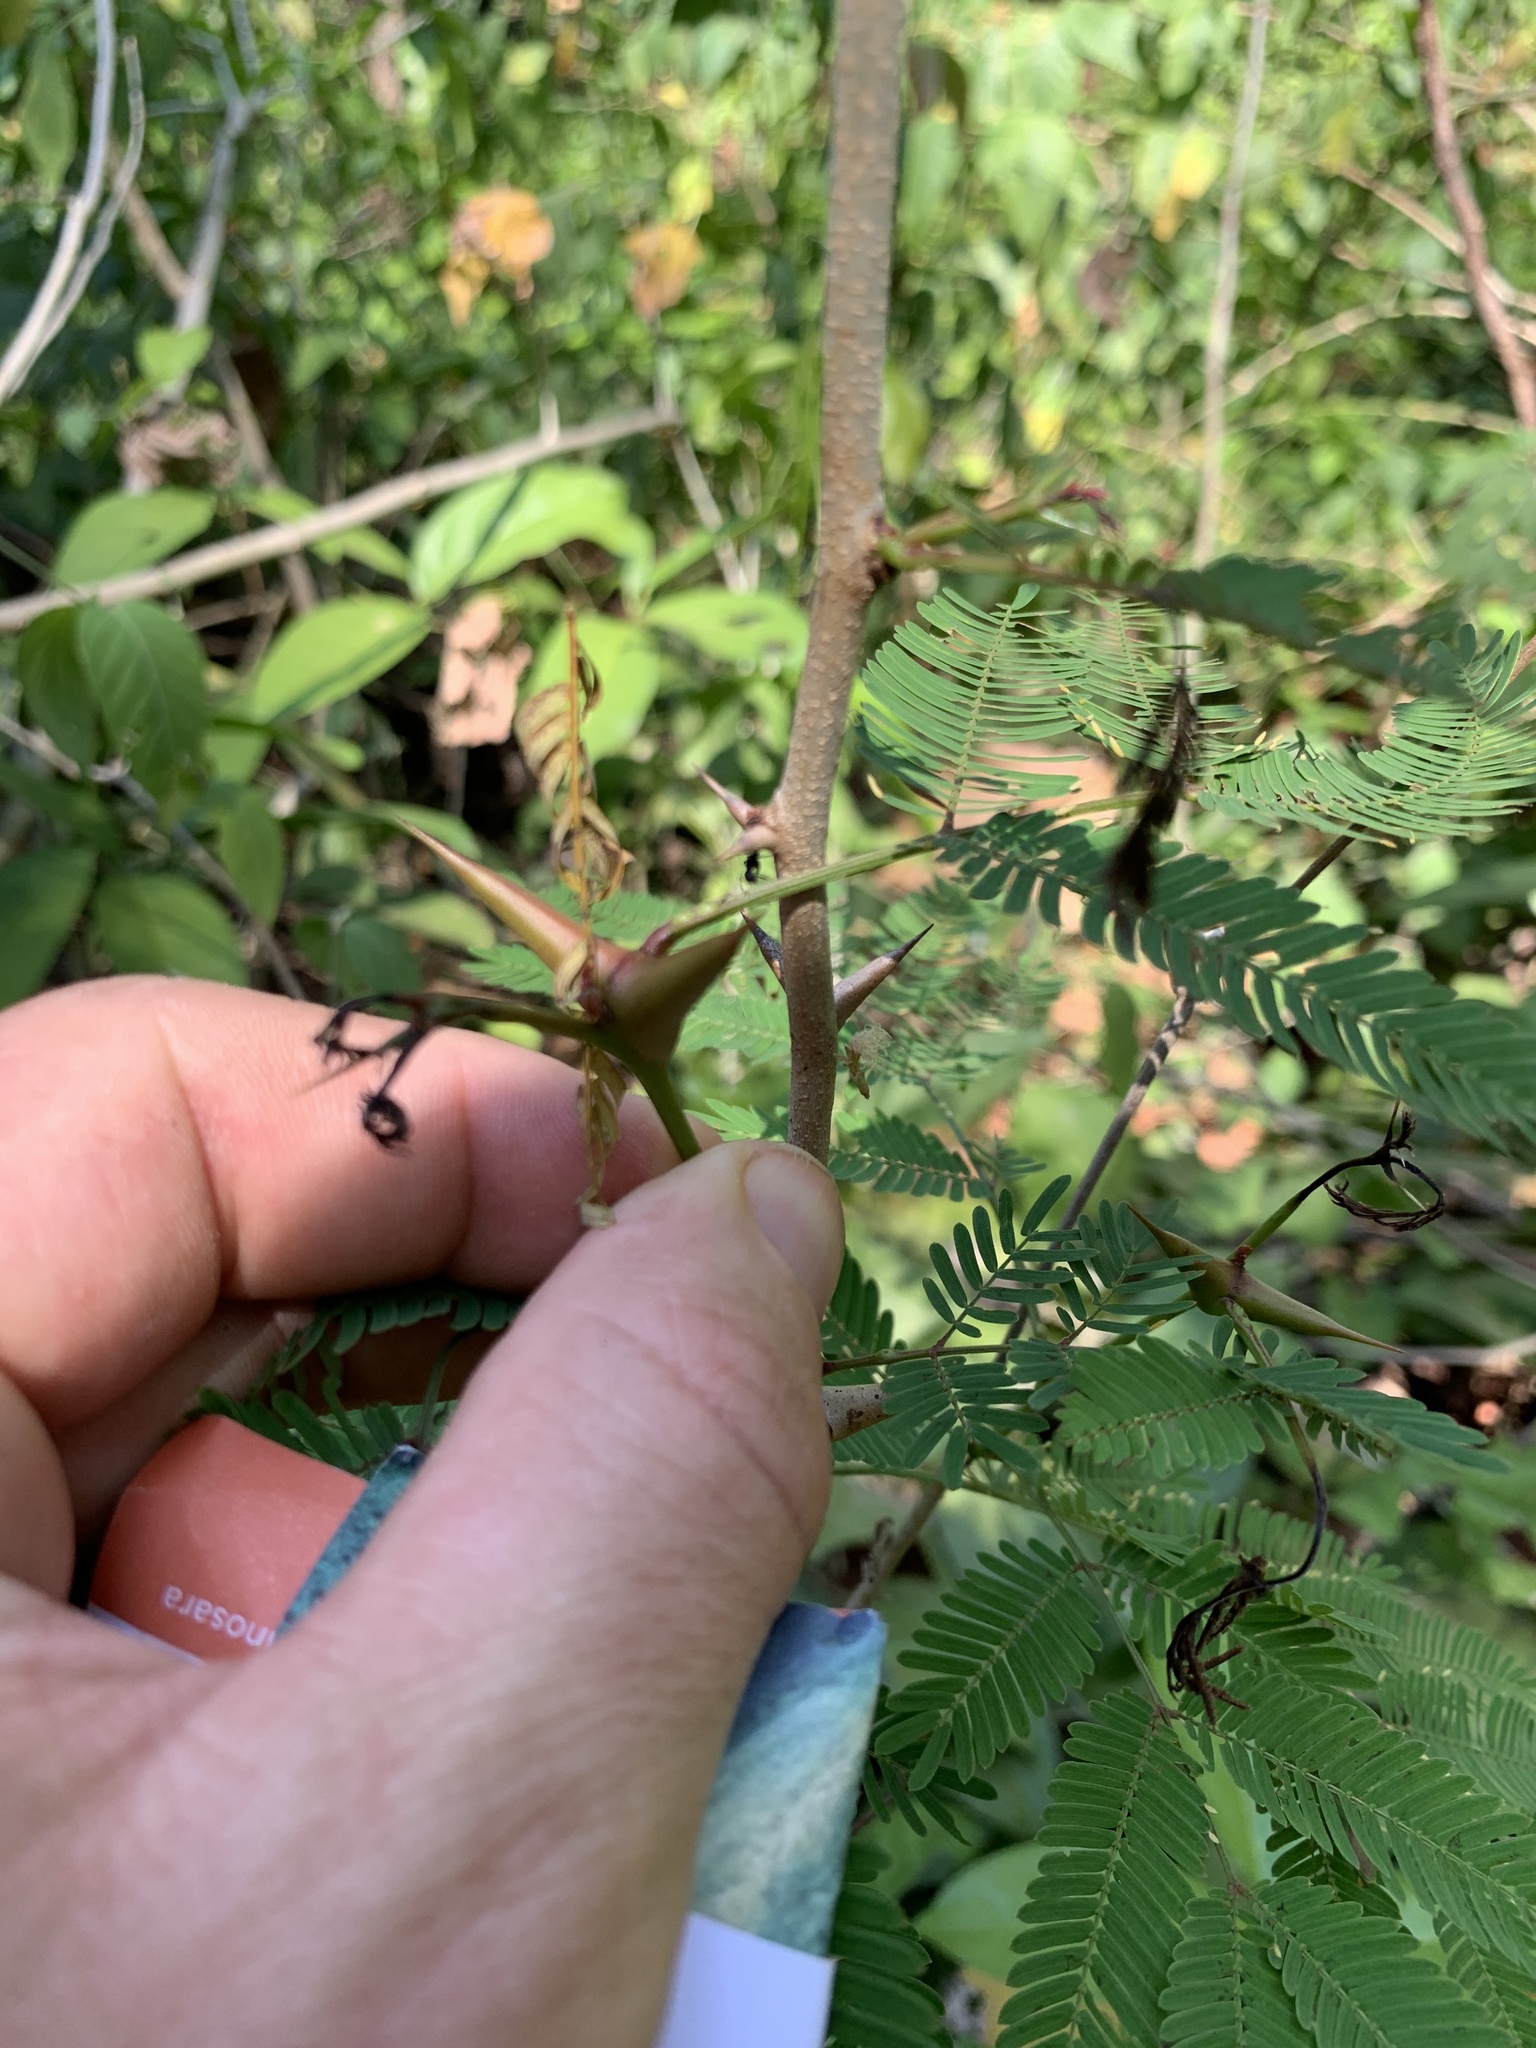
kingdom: Plantae
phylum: Tracheophyta
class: Magnoliopsida
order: Fabales
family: Fabaceae
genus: Vachellia
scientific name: Vachellia collinsii
